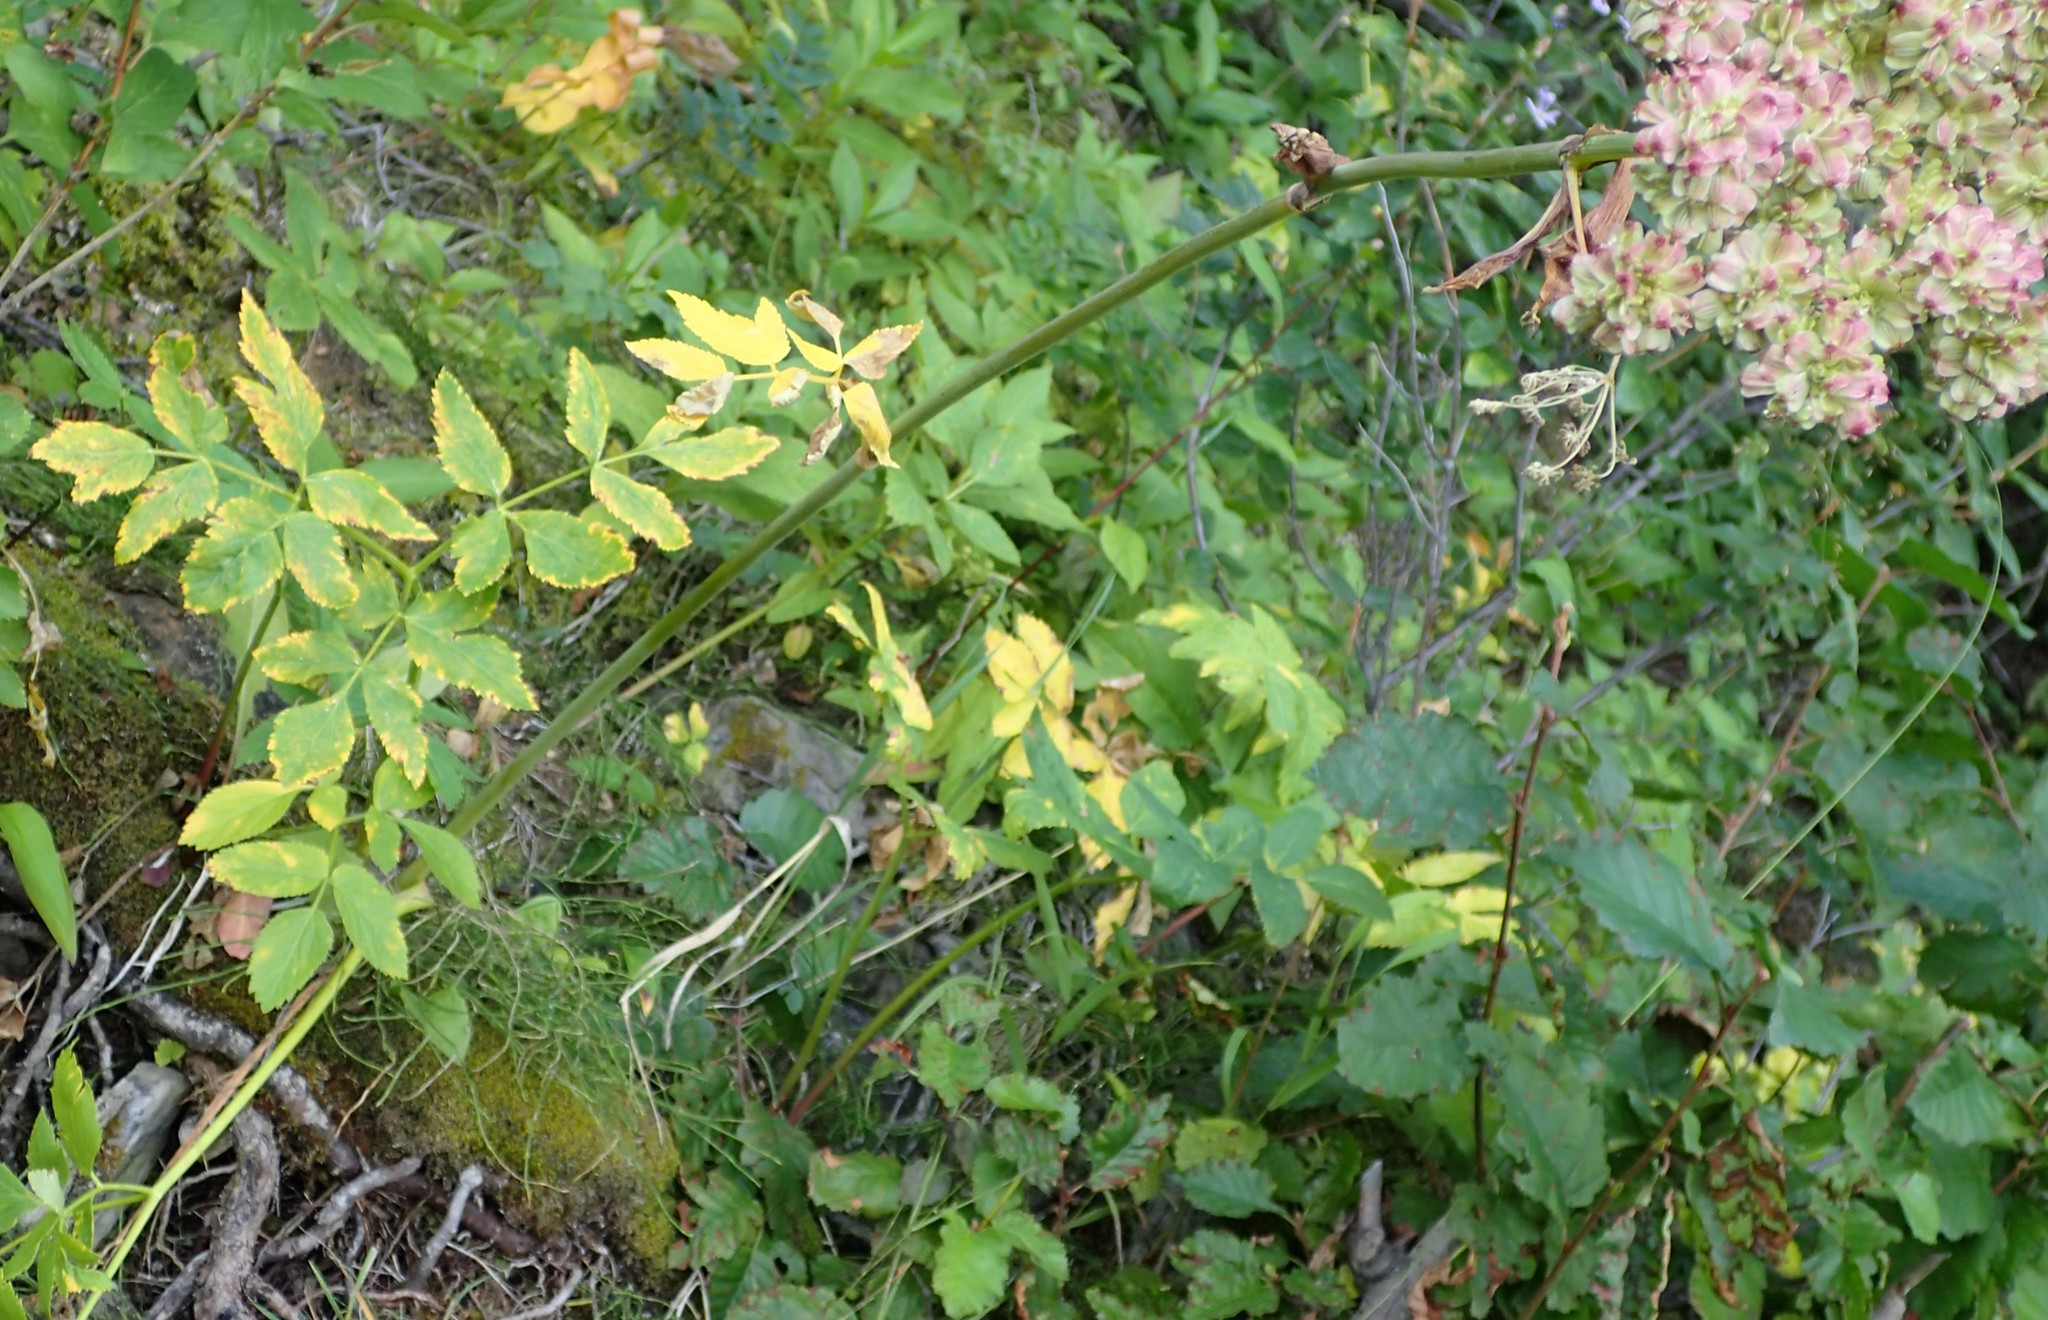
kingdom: Plantae
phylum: Tracheophyta
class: Magnoliopsida
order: Apiales
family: Apiaceae
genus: Angelica
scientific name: Angelica arguta
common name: Lyall's angelica
